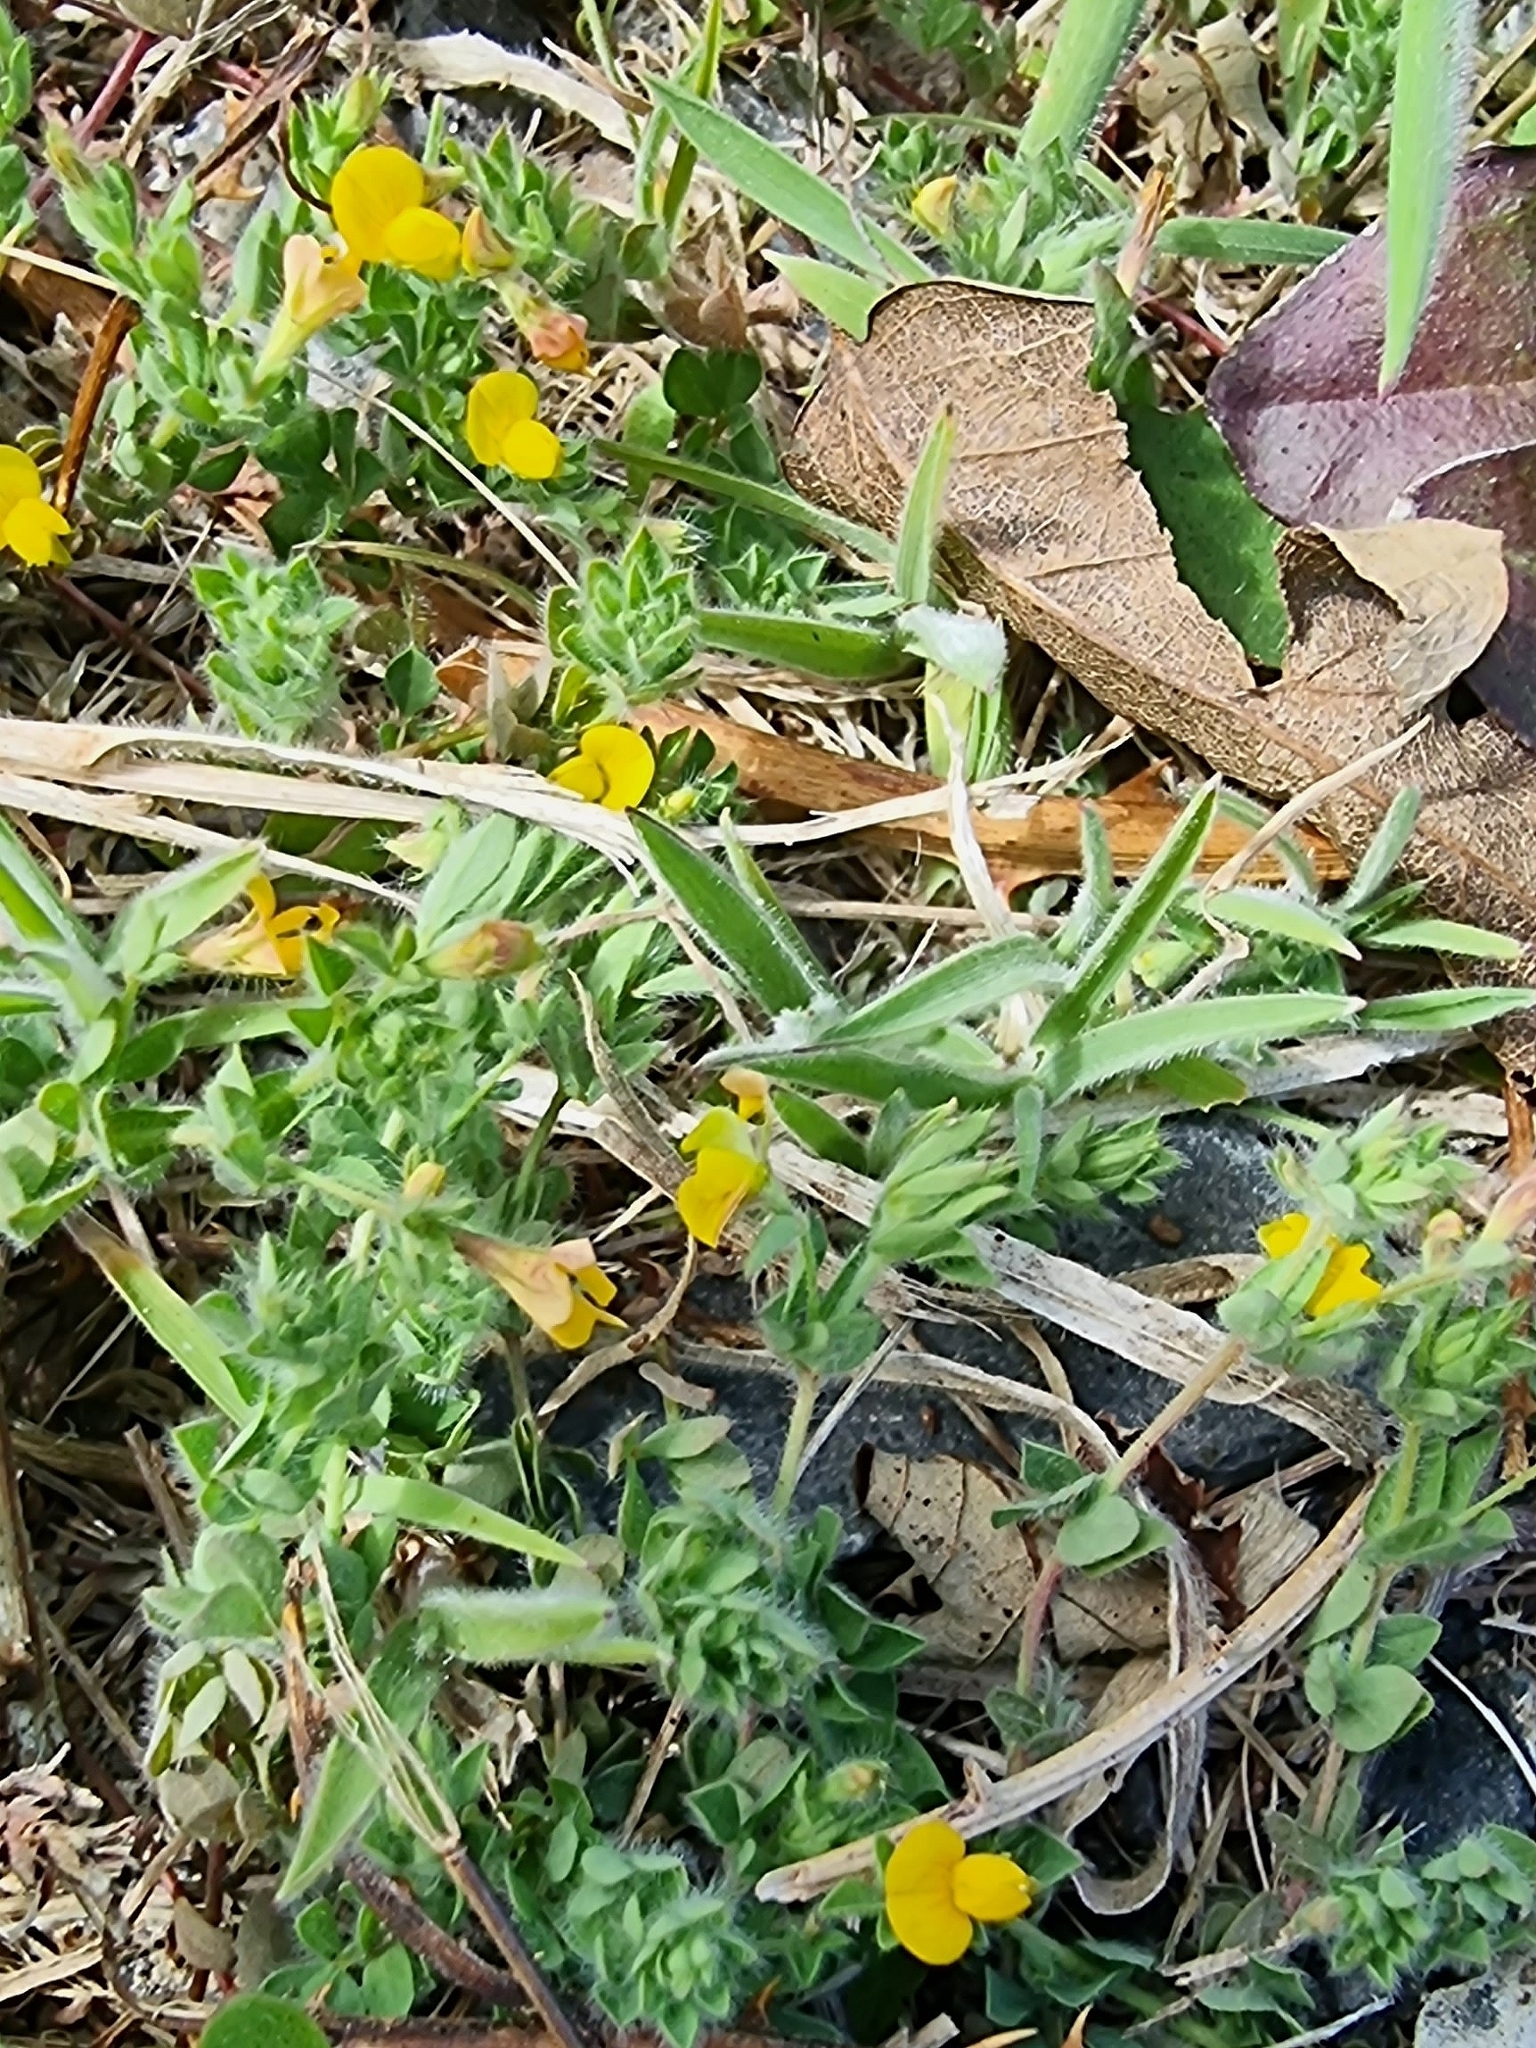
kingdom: Plantae
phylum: Tracheophyta
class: Magnoliopsida
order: Fabales
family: Fabaceae
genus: Lotus
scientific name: Lotus hispidus
